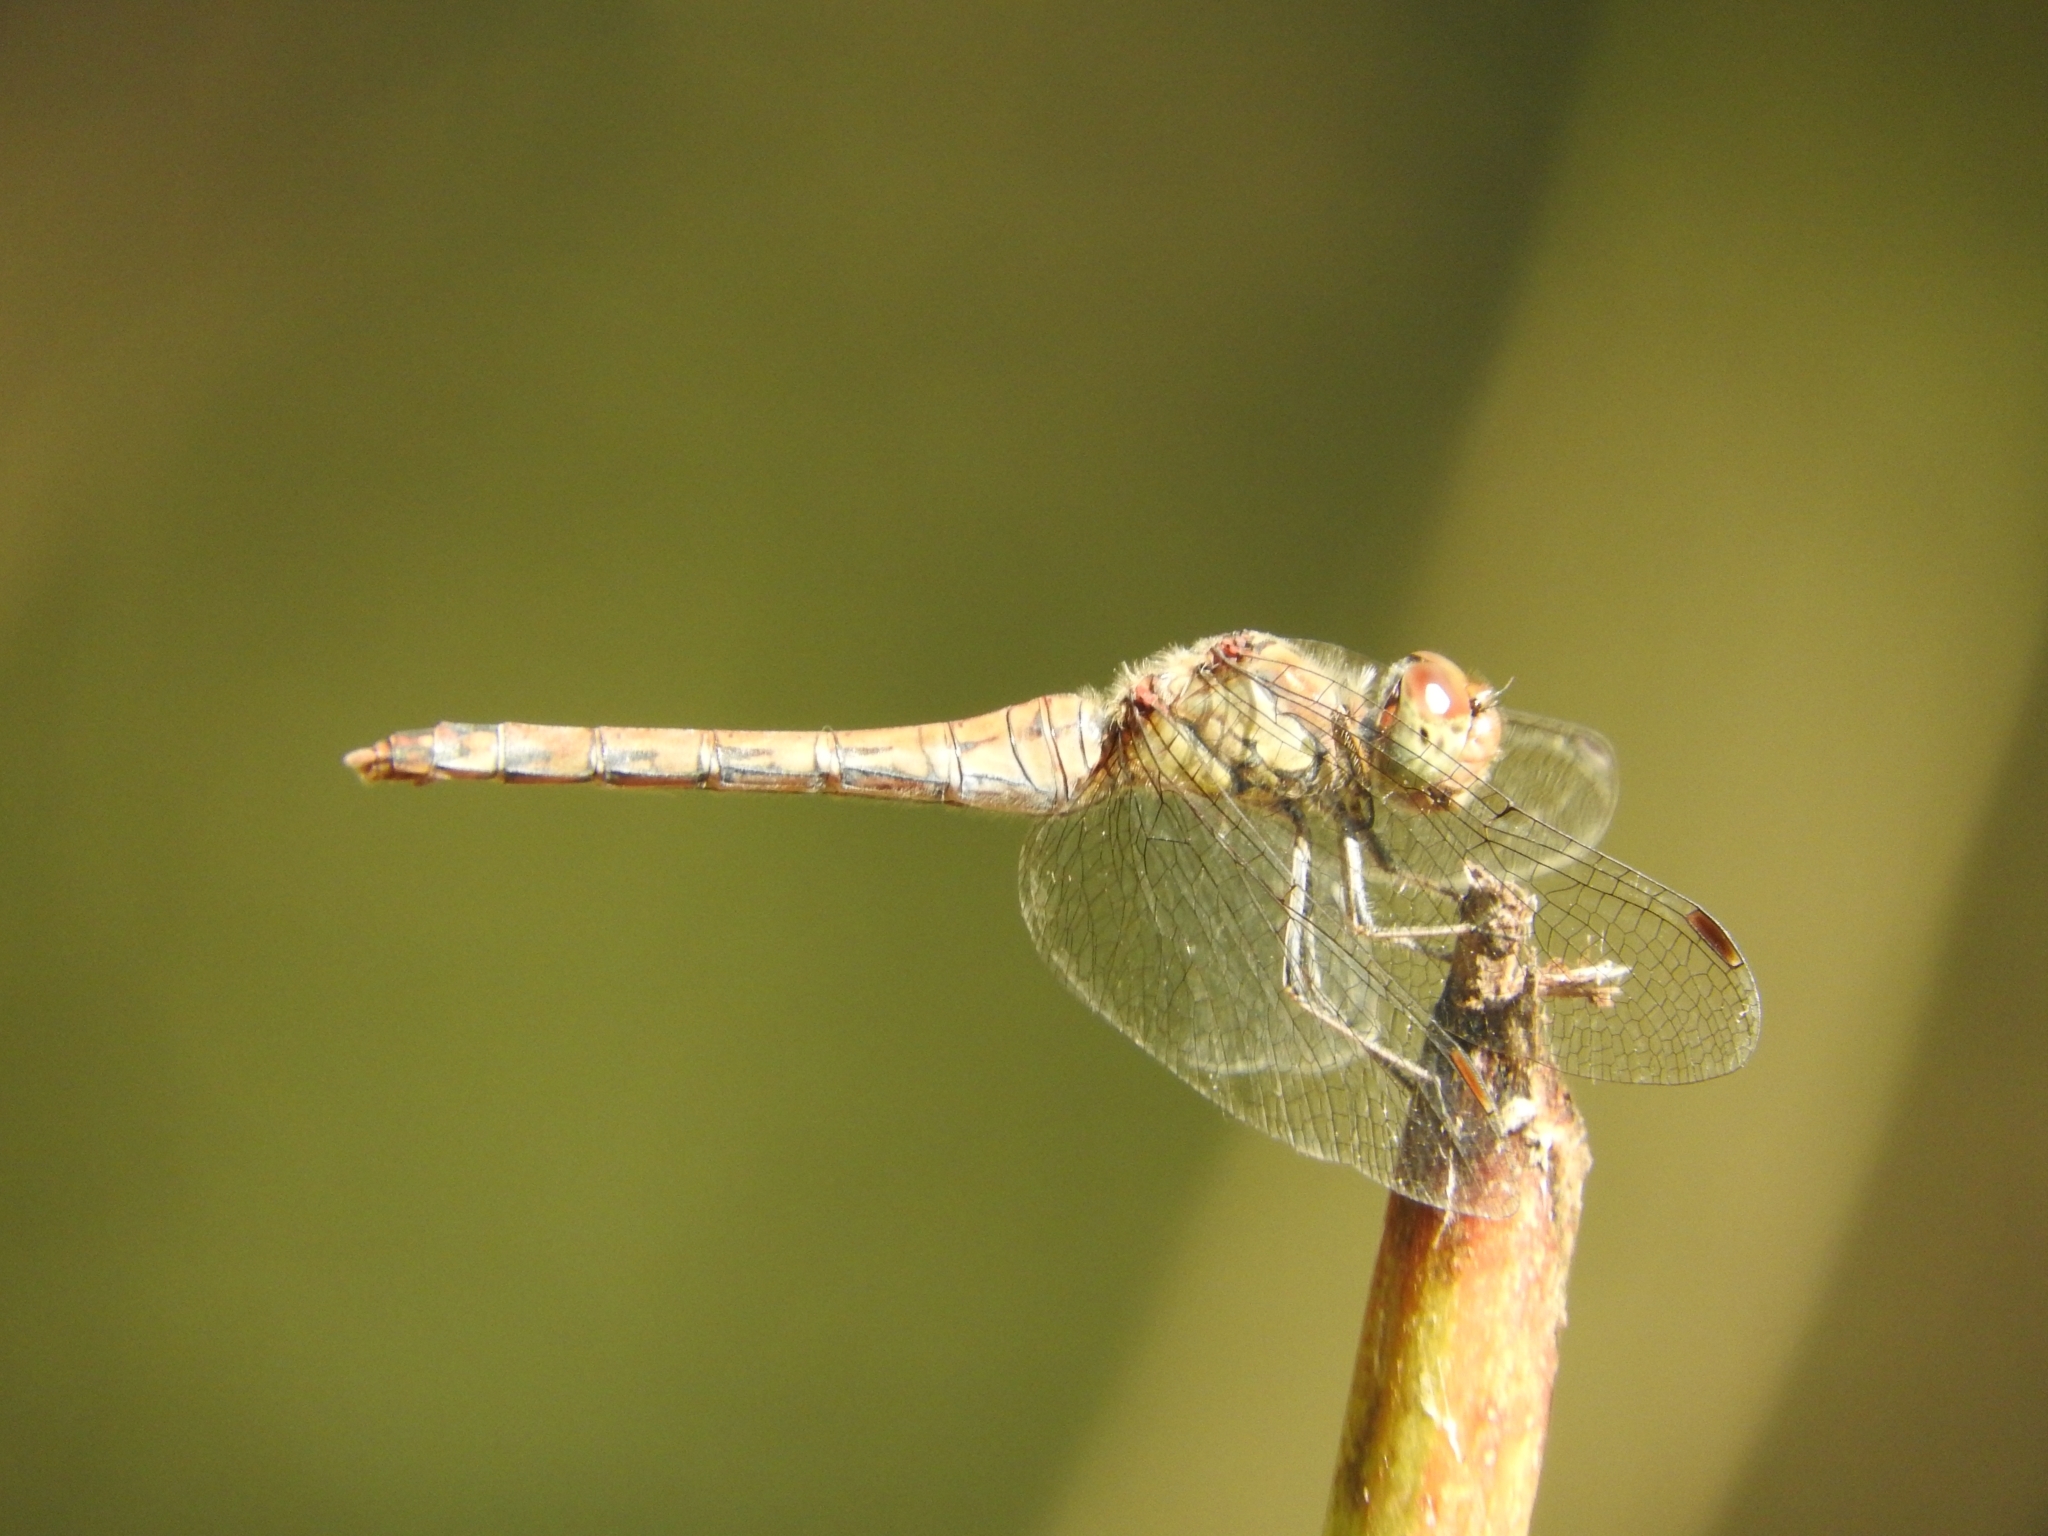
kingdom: Animalia
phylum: Arthropoda
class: Insecta
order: Odonata
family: Libellulidae
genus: Sympetrum
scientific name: Sympetrum striolatum
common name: Common darter
